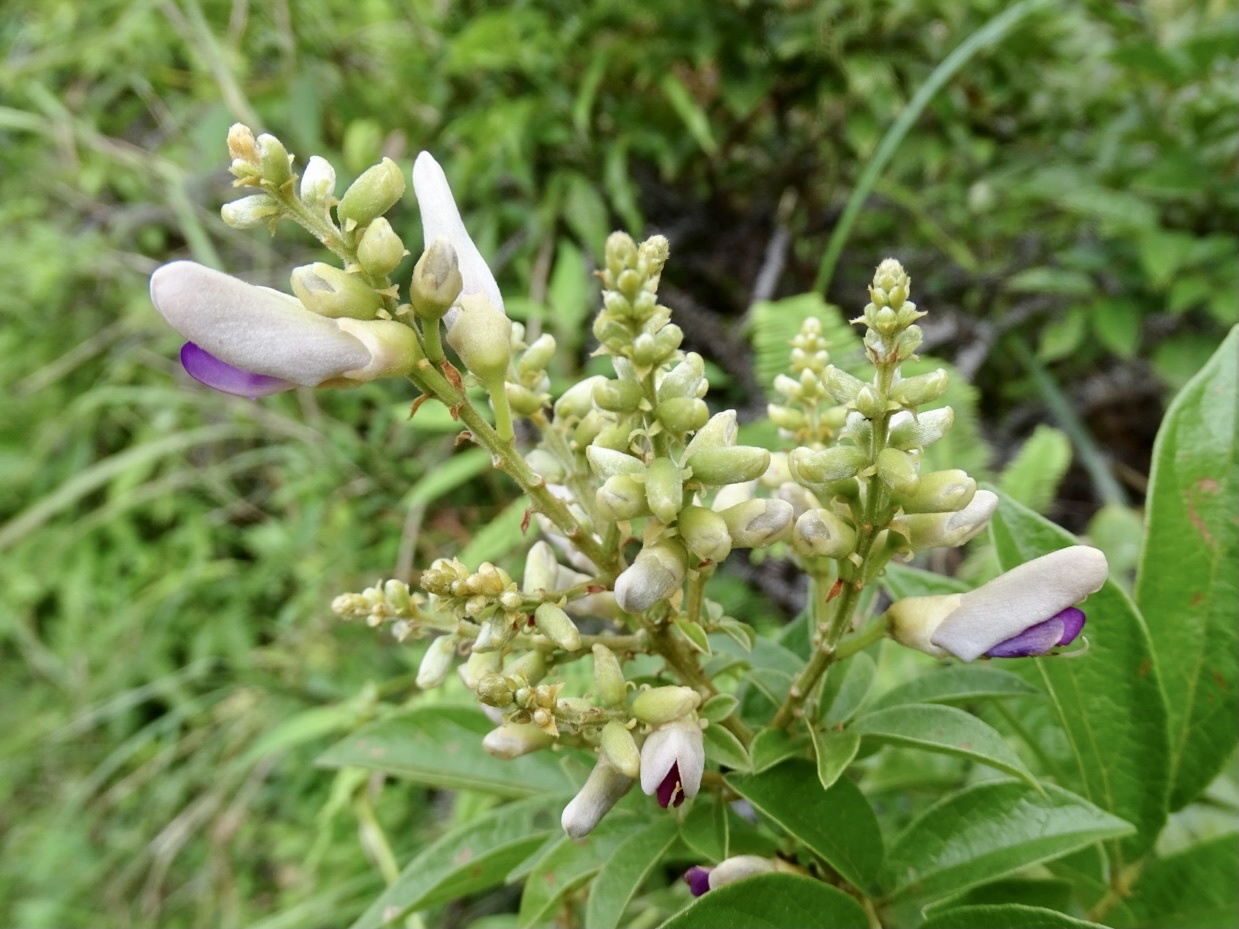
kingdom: Plantae
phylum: Tracheophyta
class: Magnoliopsida
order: Fabales
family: Fabaceae
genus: Callerya
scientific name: Callerya nitida
